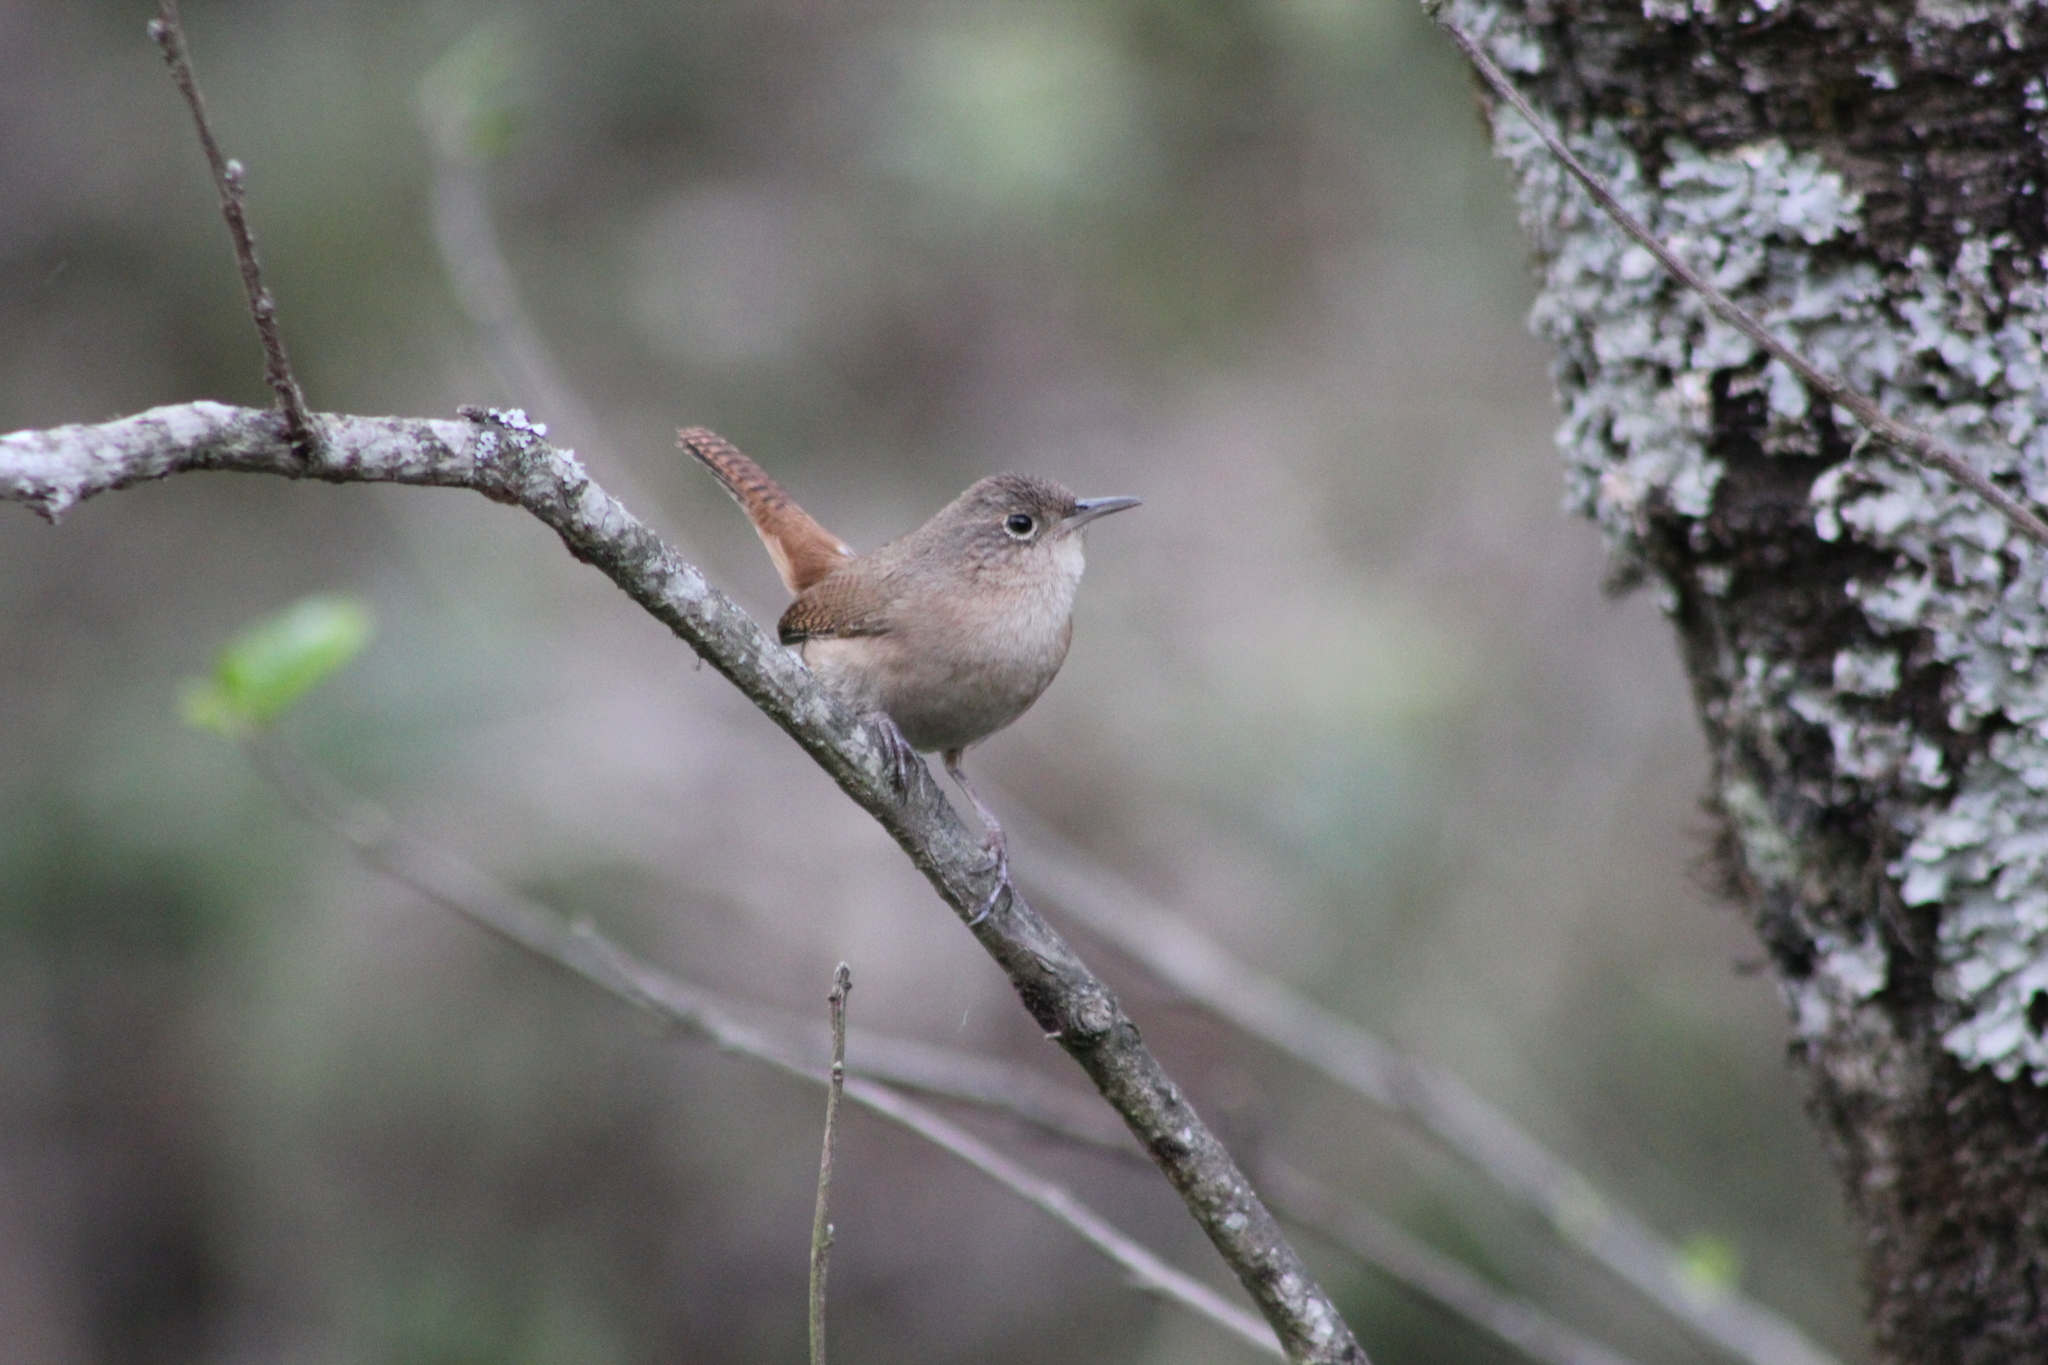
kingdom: Animalia
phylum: Chordata
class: Aves
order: Passeriformes
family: Troglodytidae
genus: Troglodytes
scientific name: Troglodytes aedon
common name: House wren
